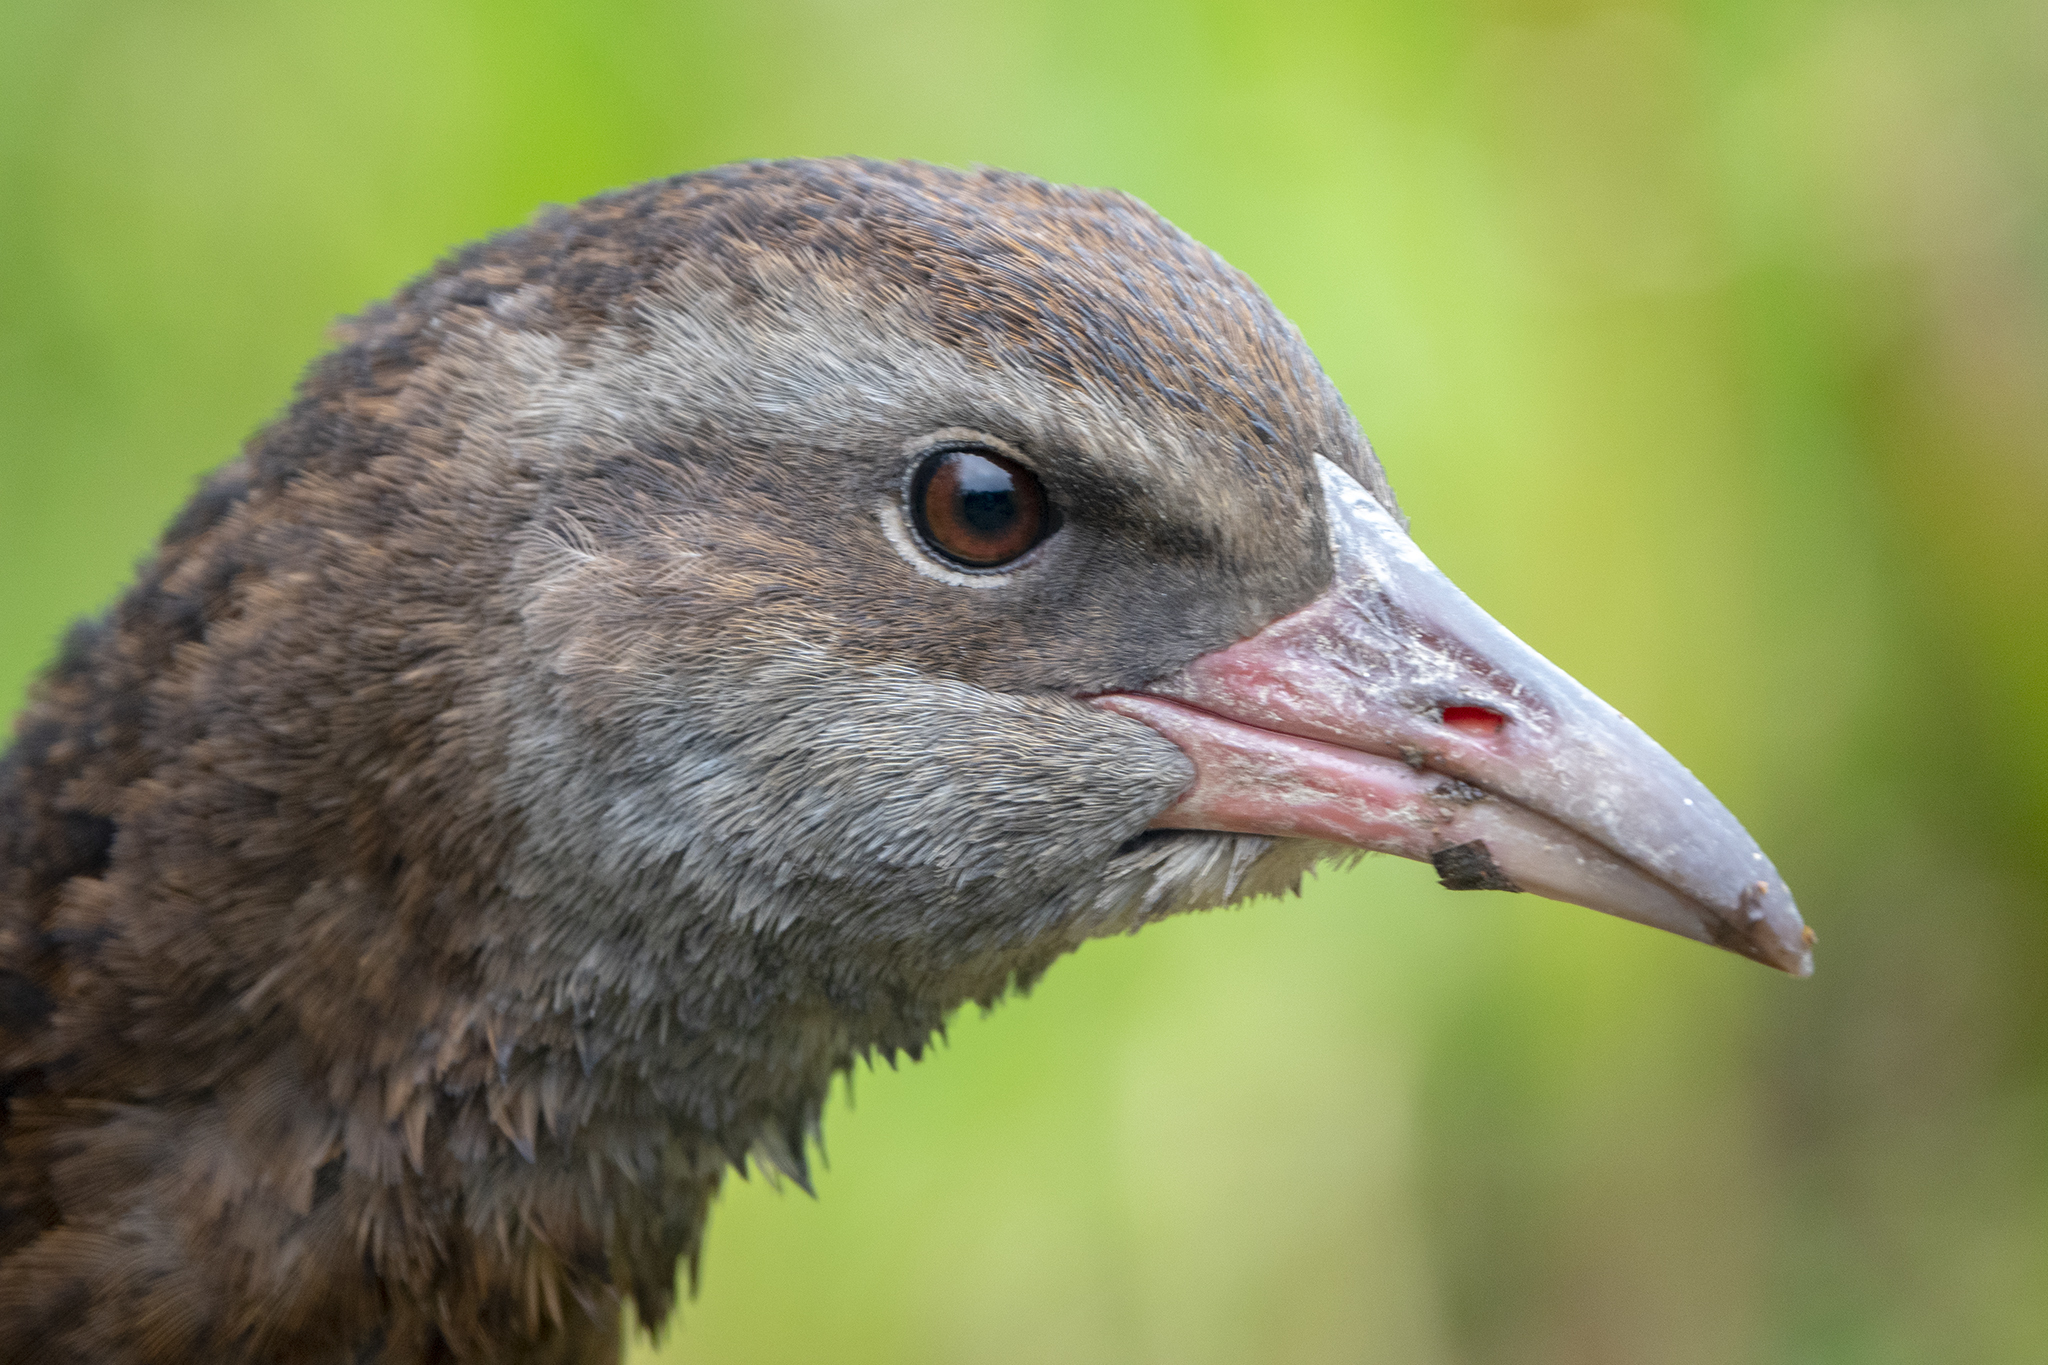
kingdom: Animalia
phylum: Chordata
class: Aves
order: Gruiformes
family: Rallidae
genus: Gallirallus
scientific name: Gallirallus australis
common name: Weka
